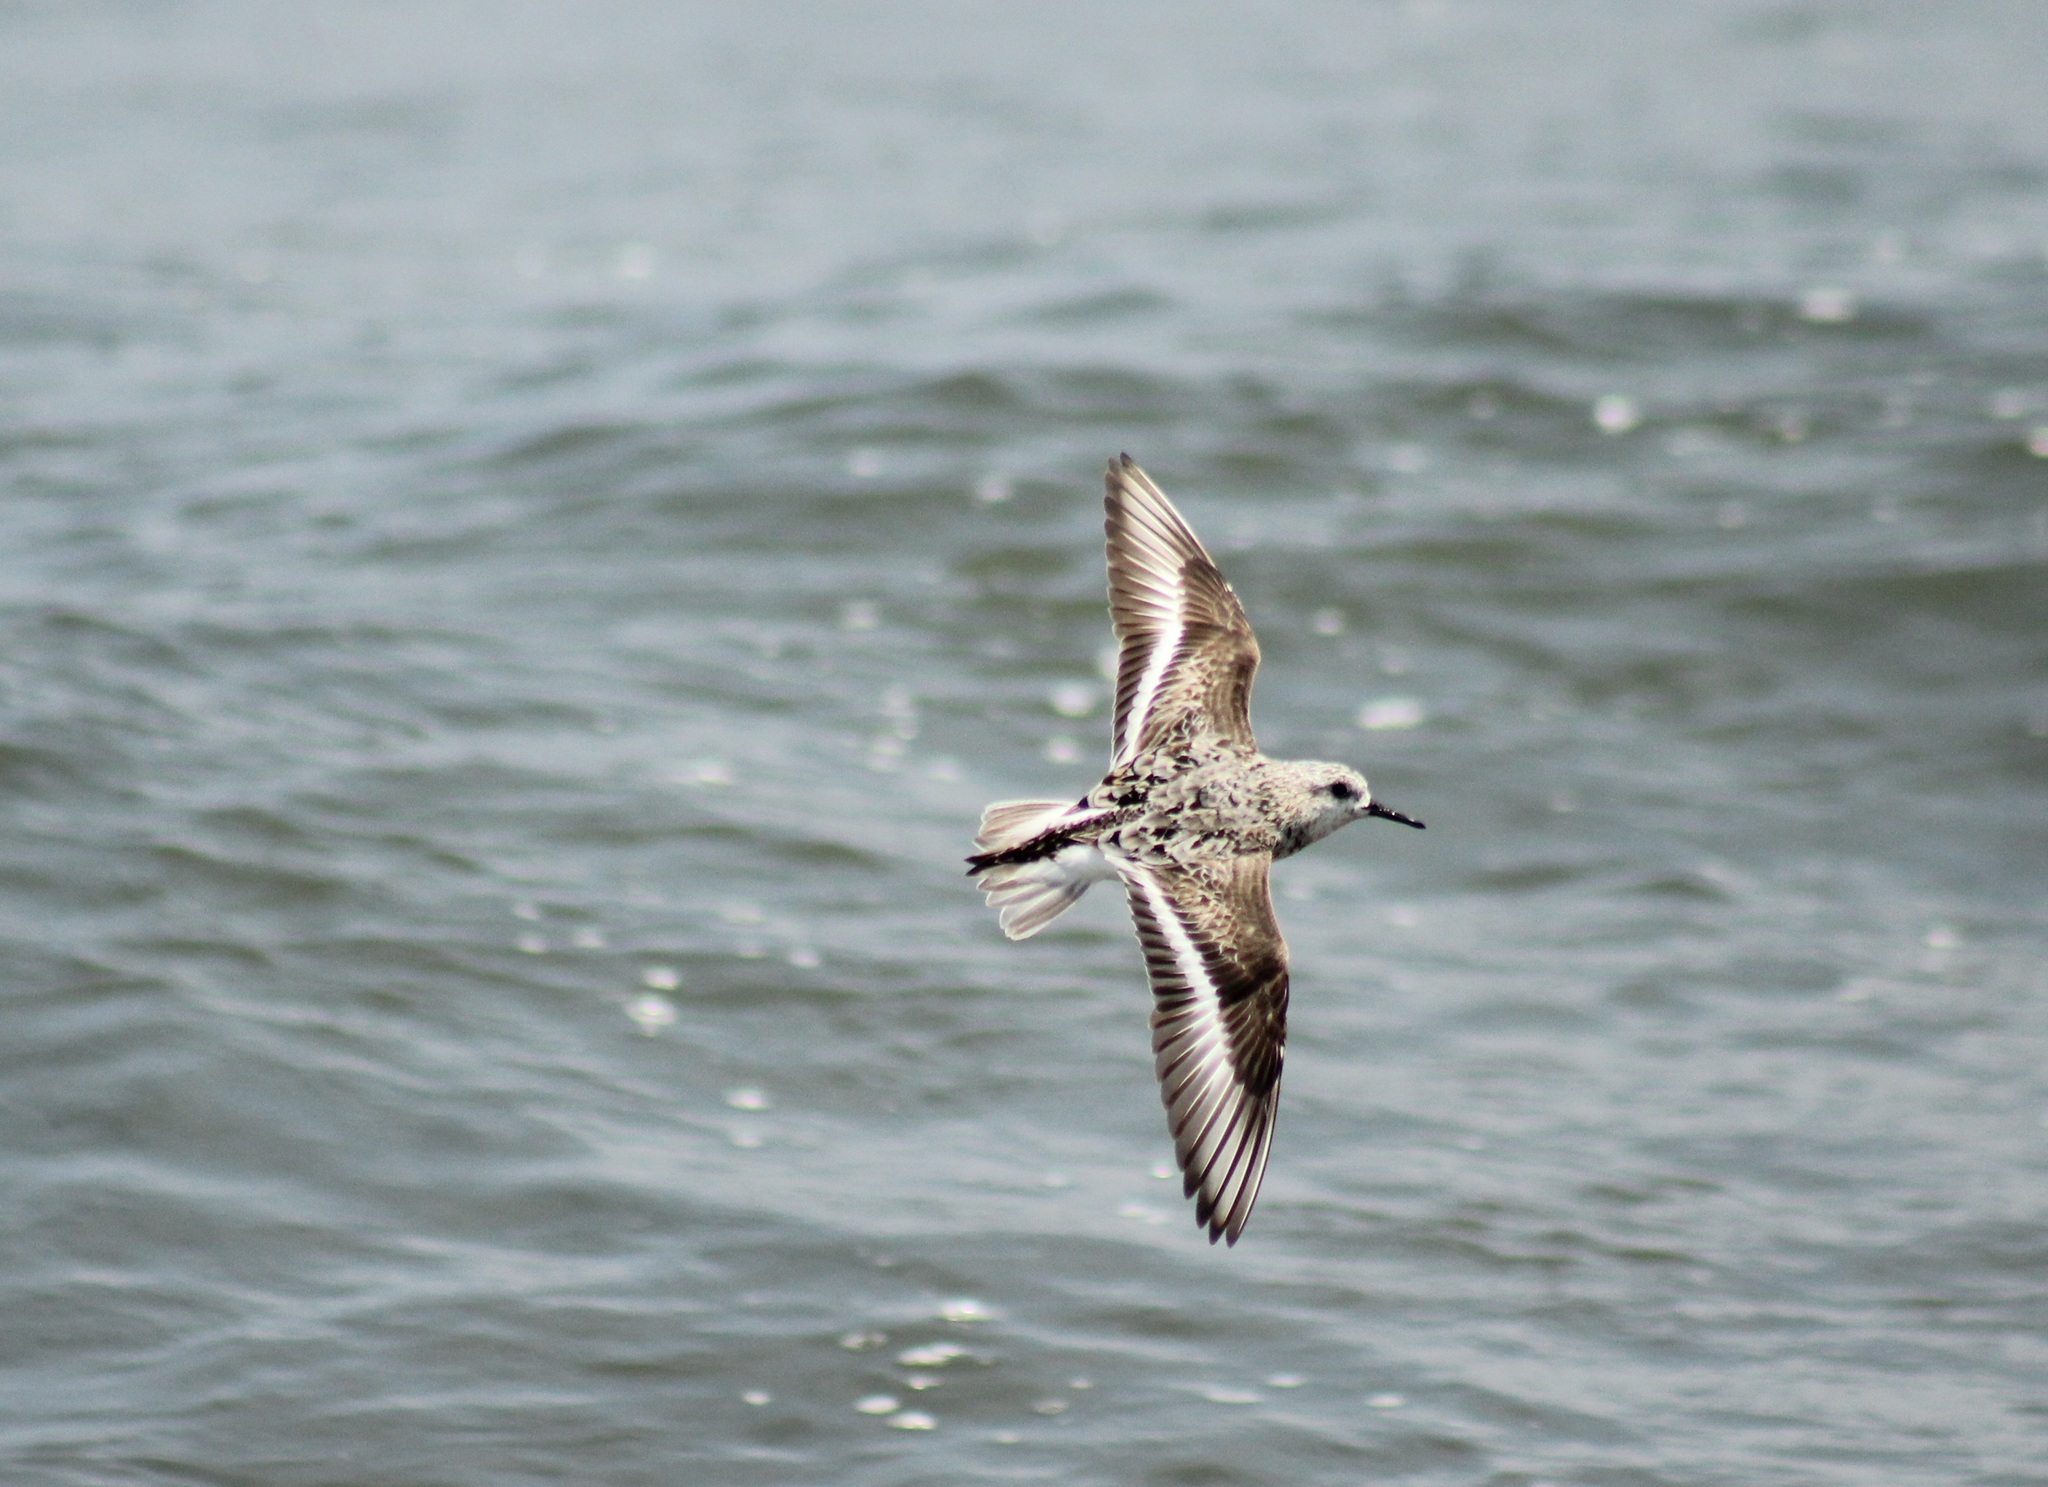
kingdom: Animalia
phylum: Chordata
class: Aves
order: Charadriiformes
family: Scolopacidae
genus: Calidris
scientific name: Calidris alba
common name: Sanderling
